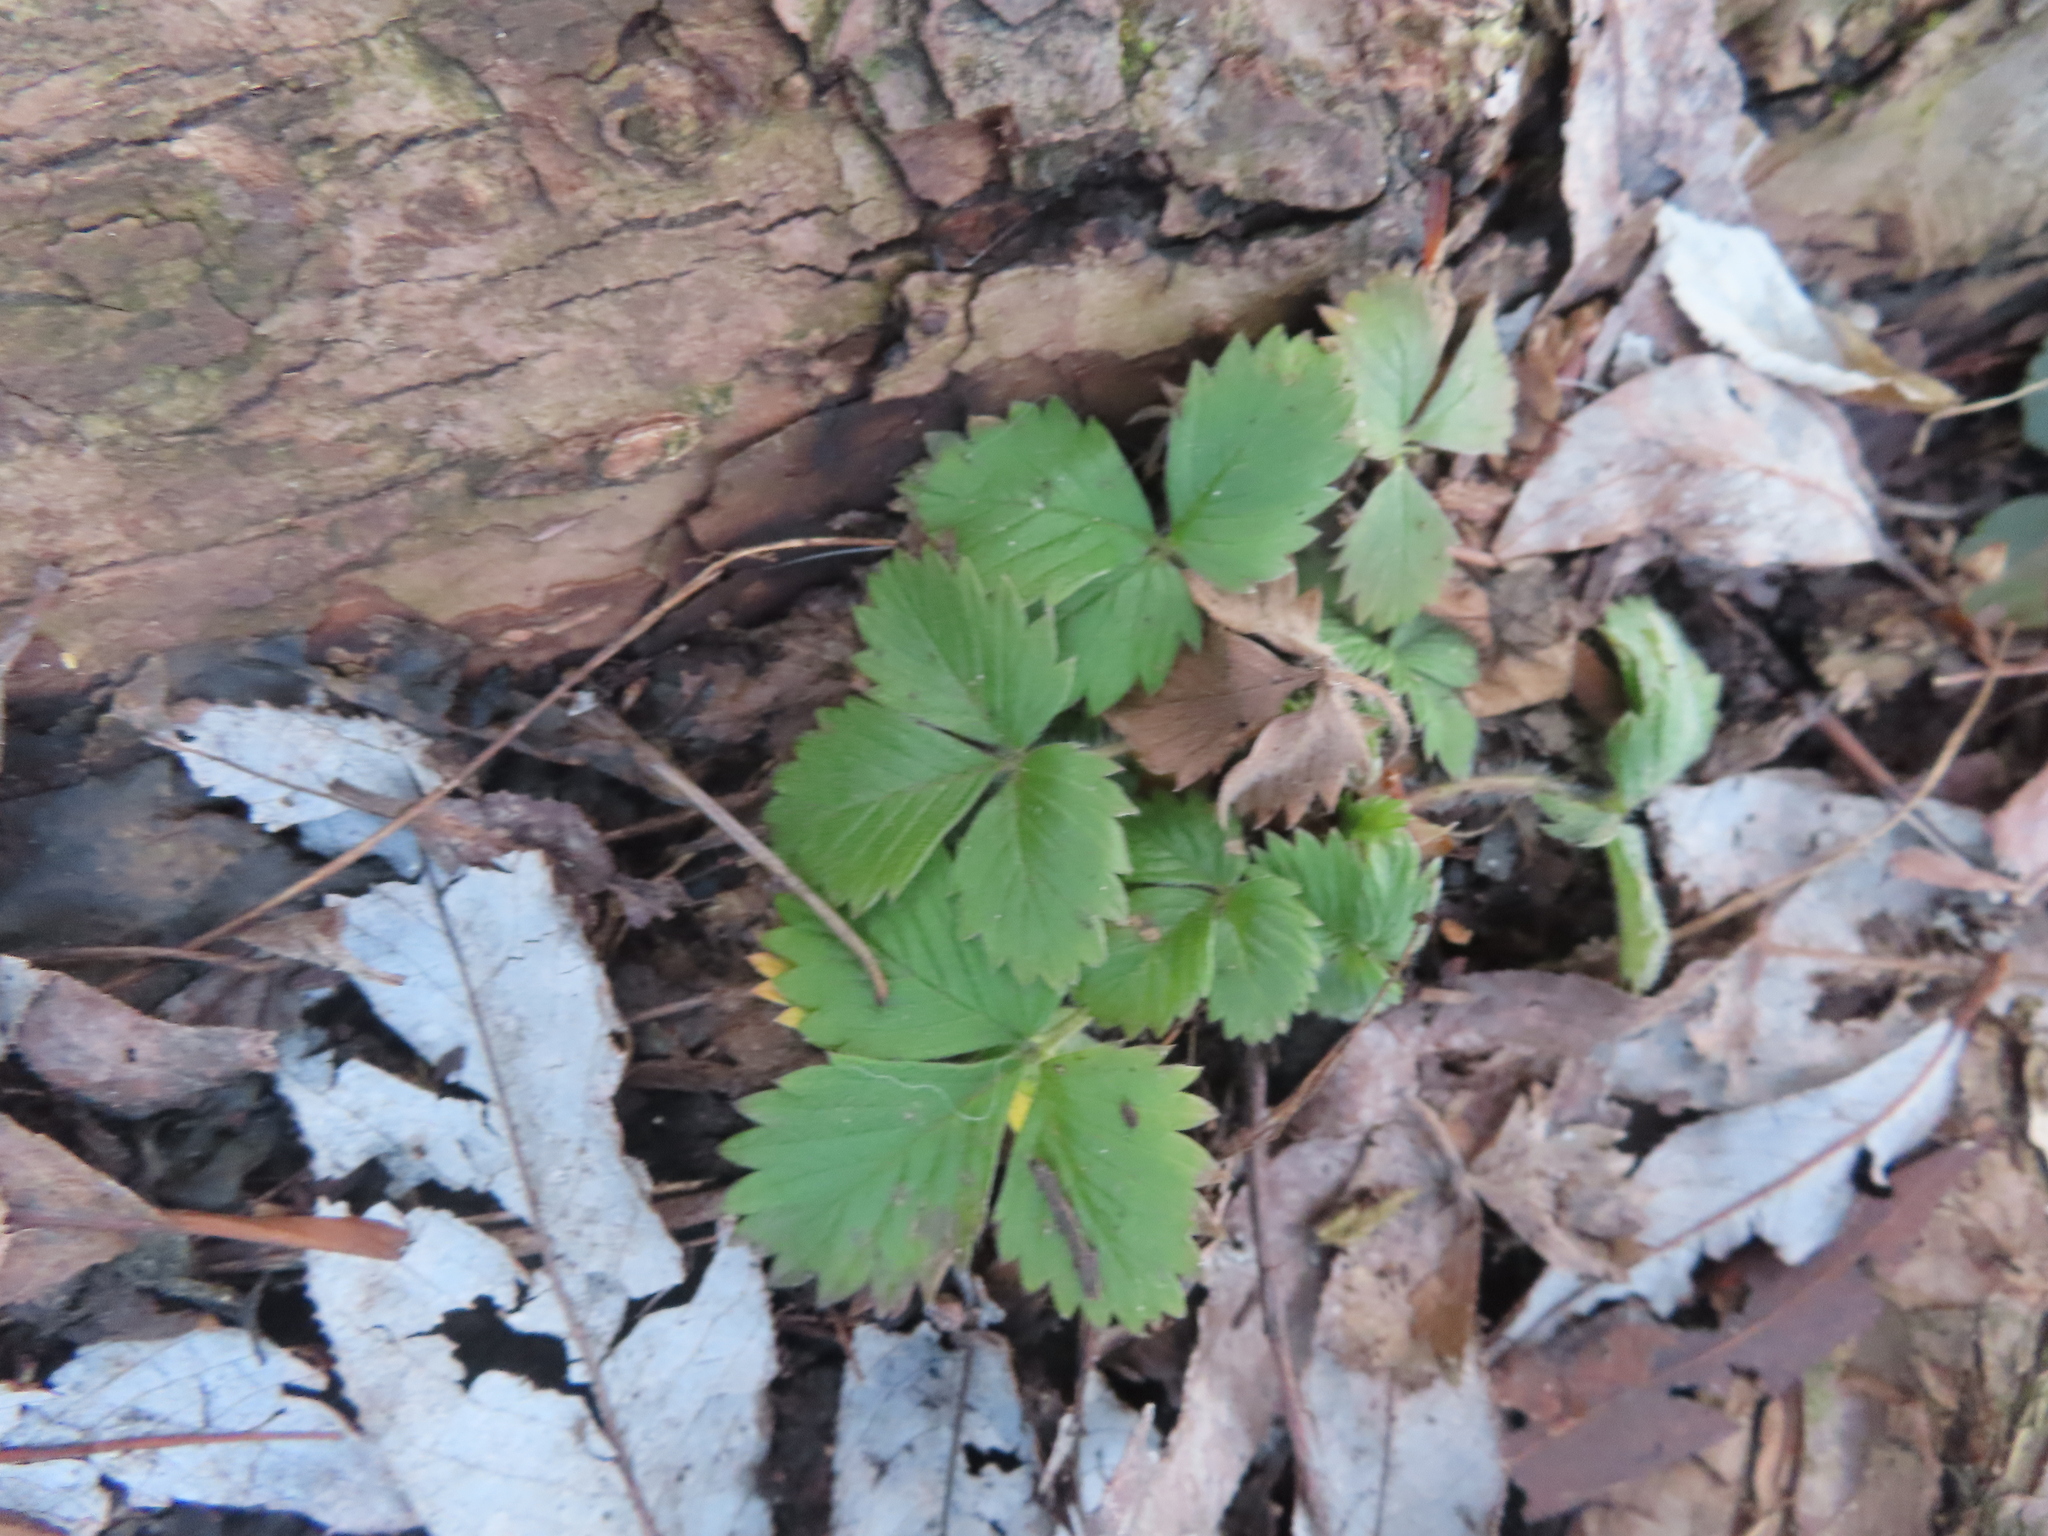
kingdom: Plantae
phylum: Tracheophyta
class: Magnoliopsida
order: Rosales
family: Rosaceae
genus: Fragaria
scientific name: Fragaria vesca
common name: Wild strawberry
